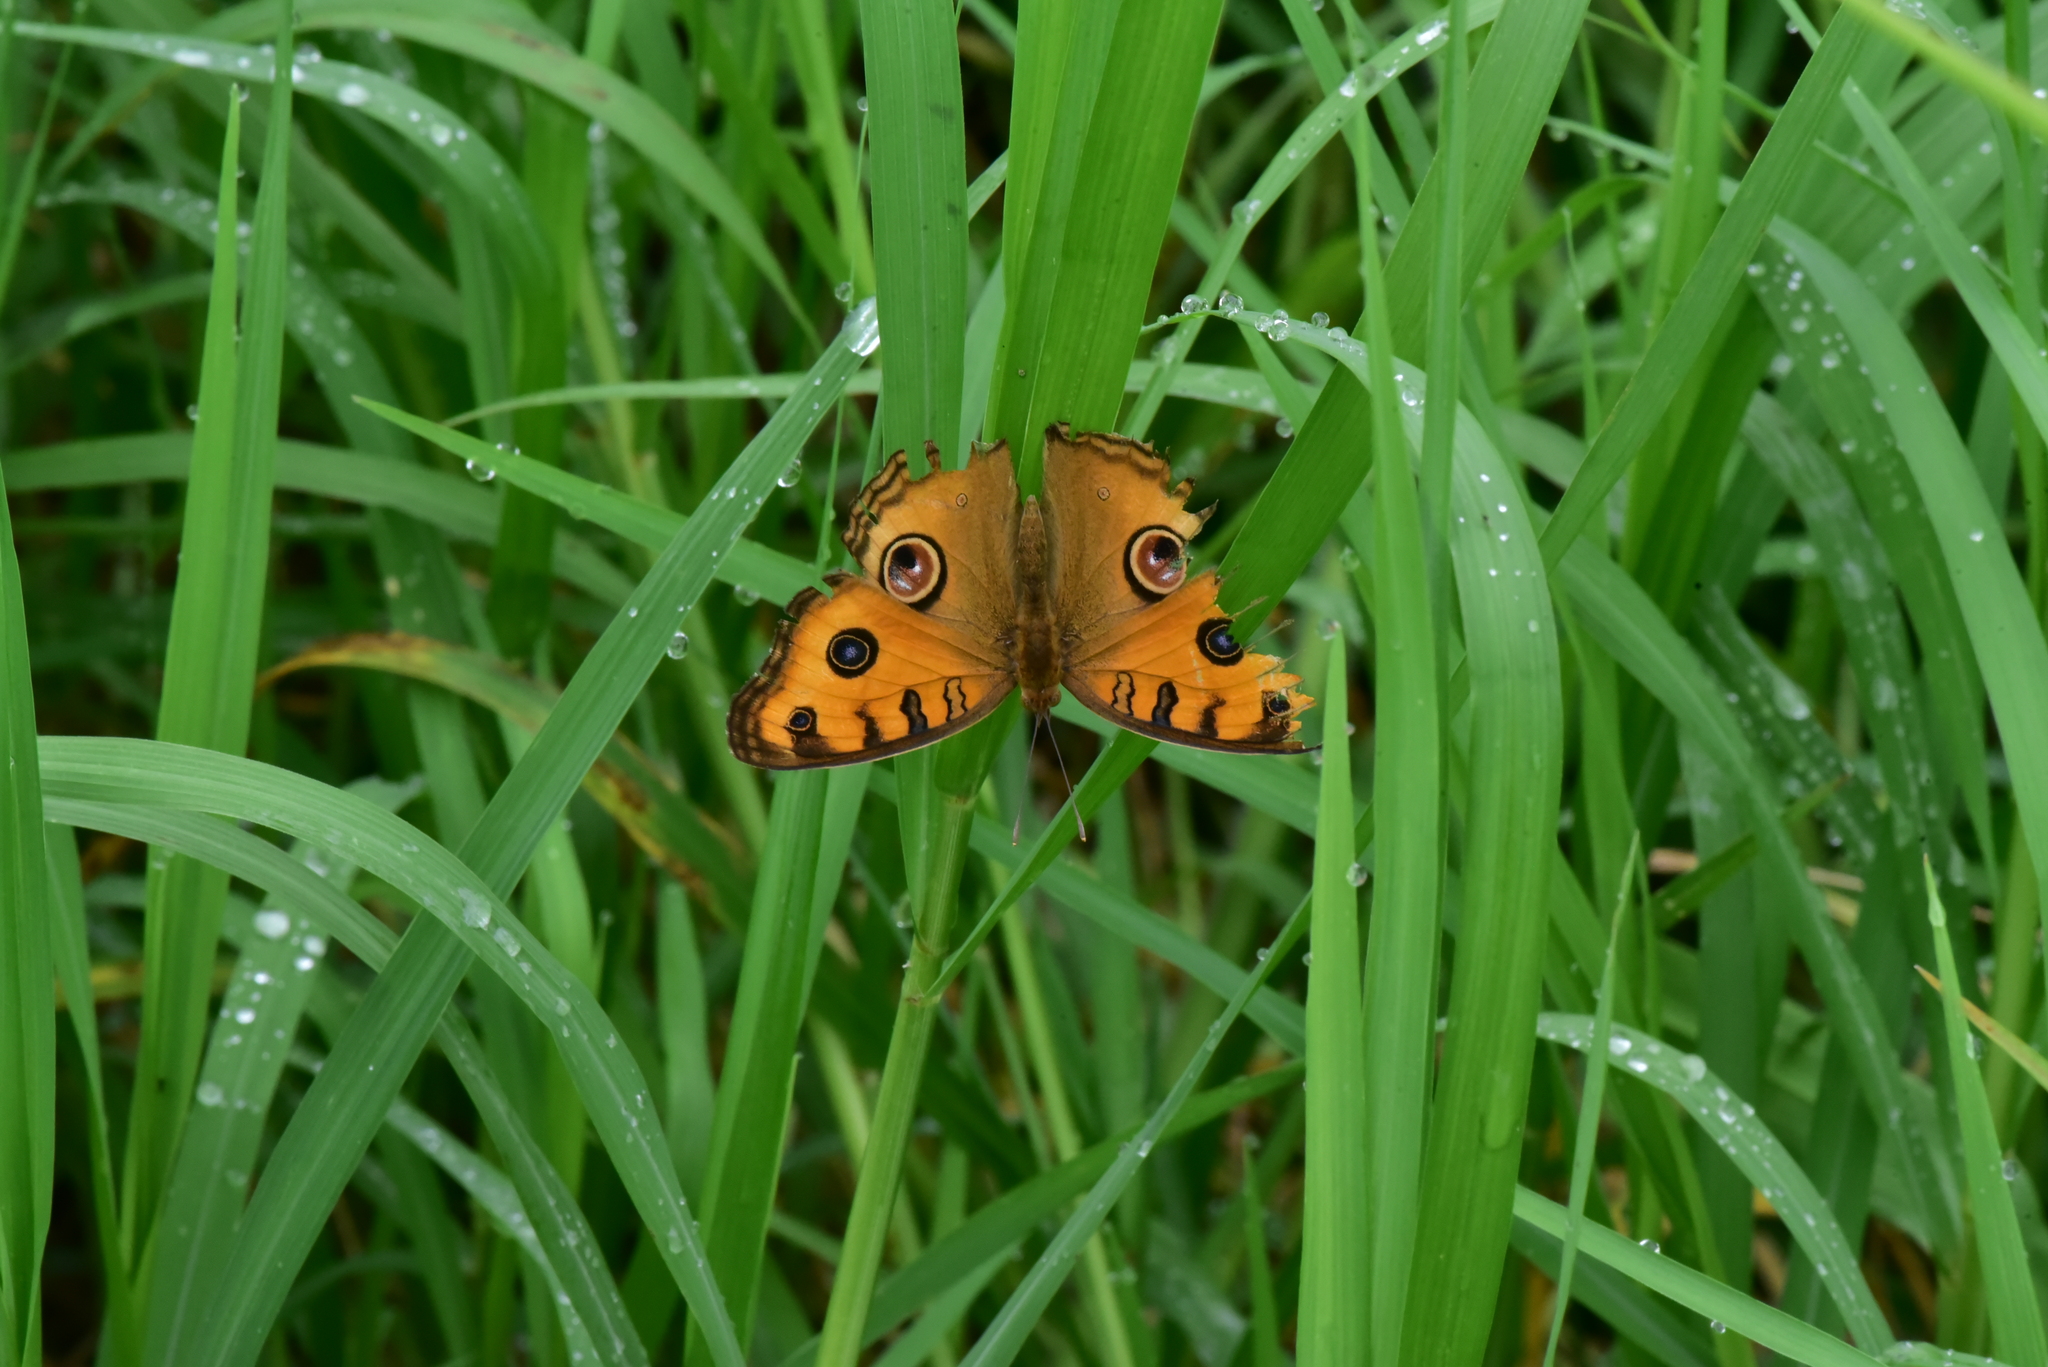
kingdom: Animalia
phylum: Arthropoda
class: Insecta
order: Lepidoptera
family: Nymphalidae
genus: Junonia
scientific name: Junonia almana
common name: Peacock pansy
